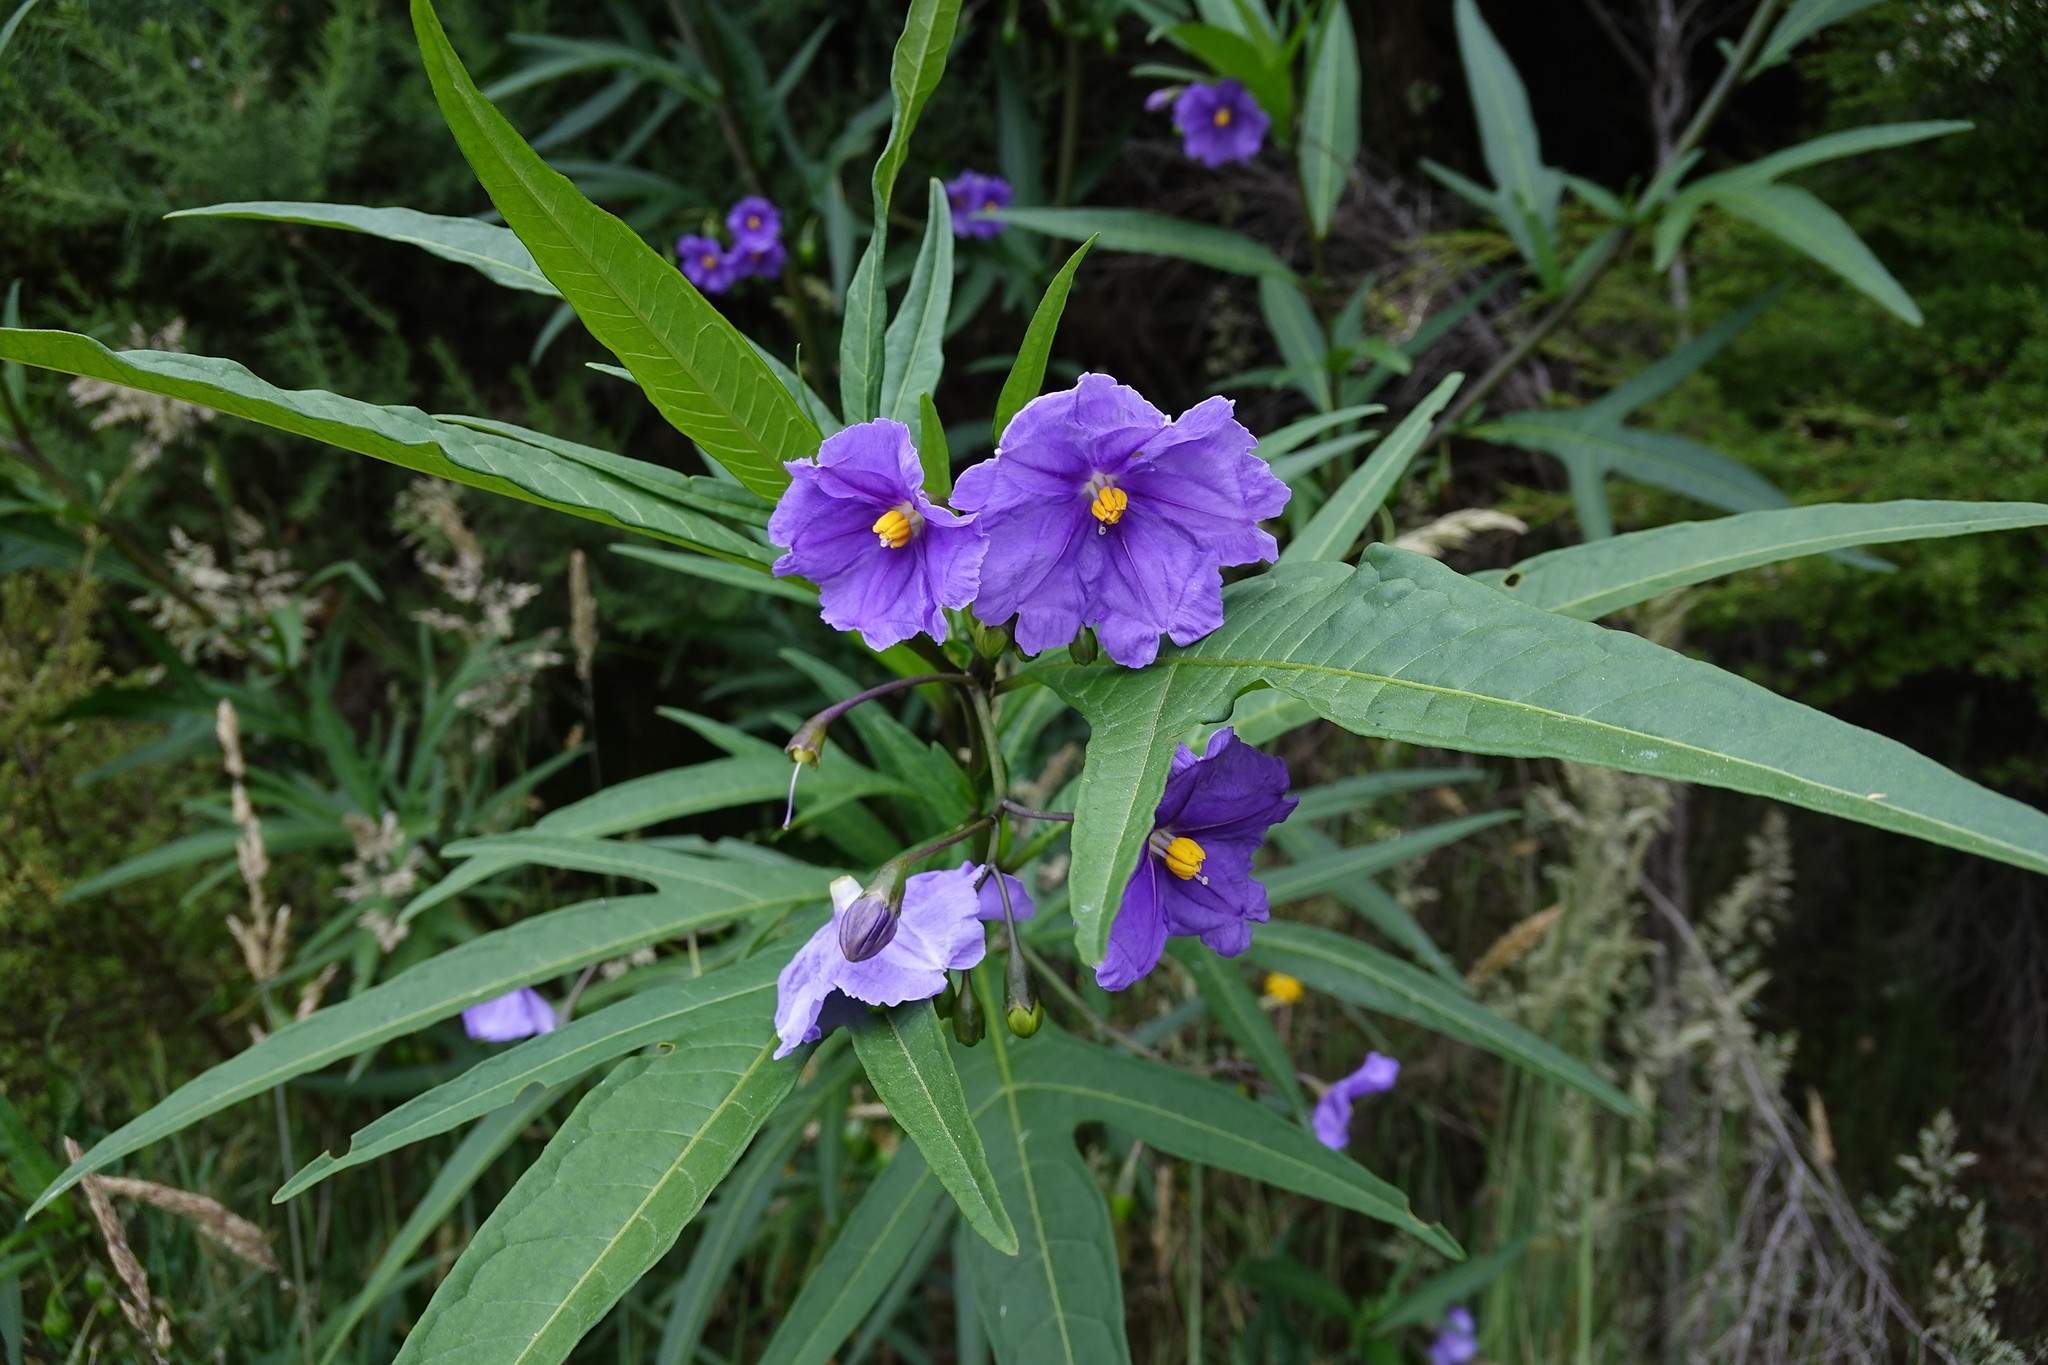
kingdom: Plantae
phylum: Tracheophyta
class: Magnoliopsida
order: Solanales
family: Solanaceae
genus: Solanum
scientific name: Solanum laciniatum
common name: Kangaroo-apple
